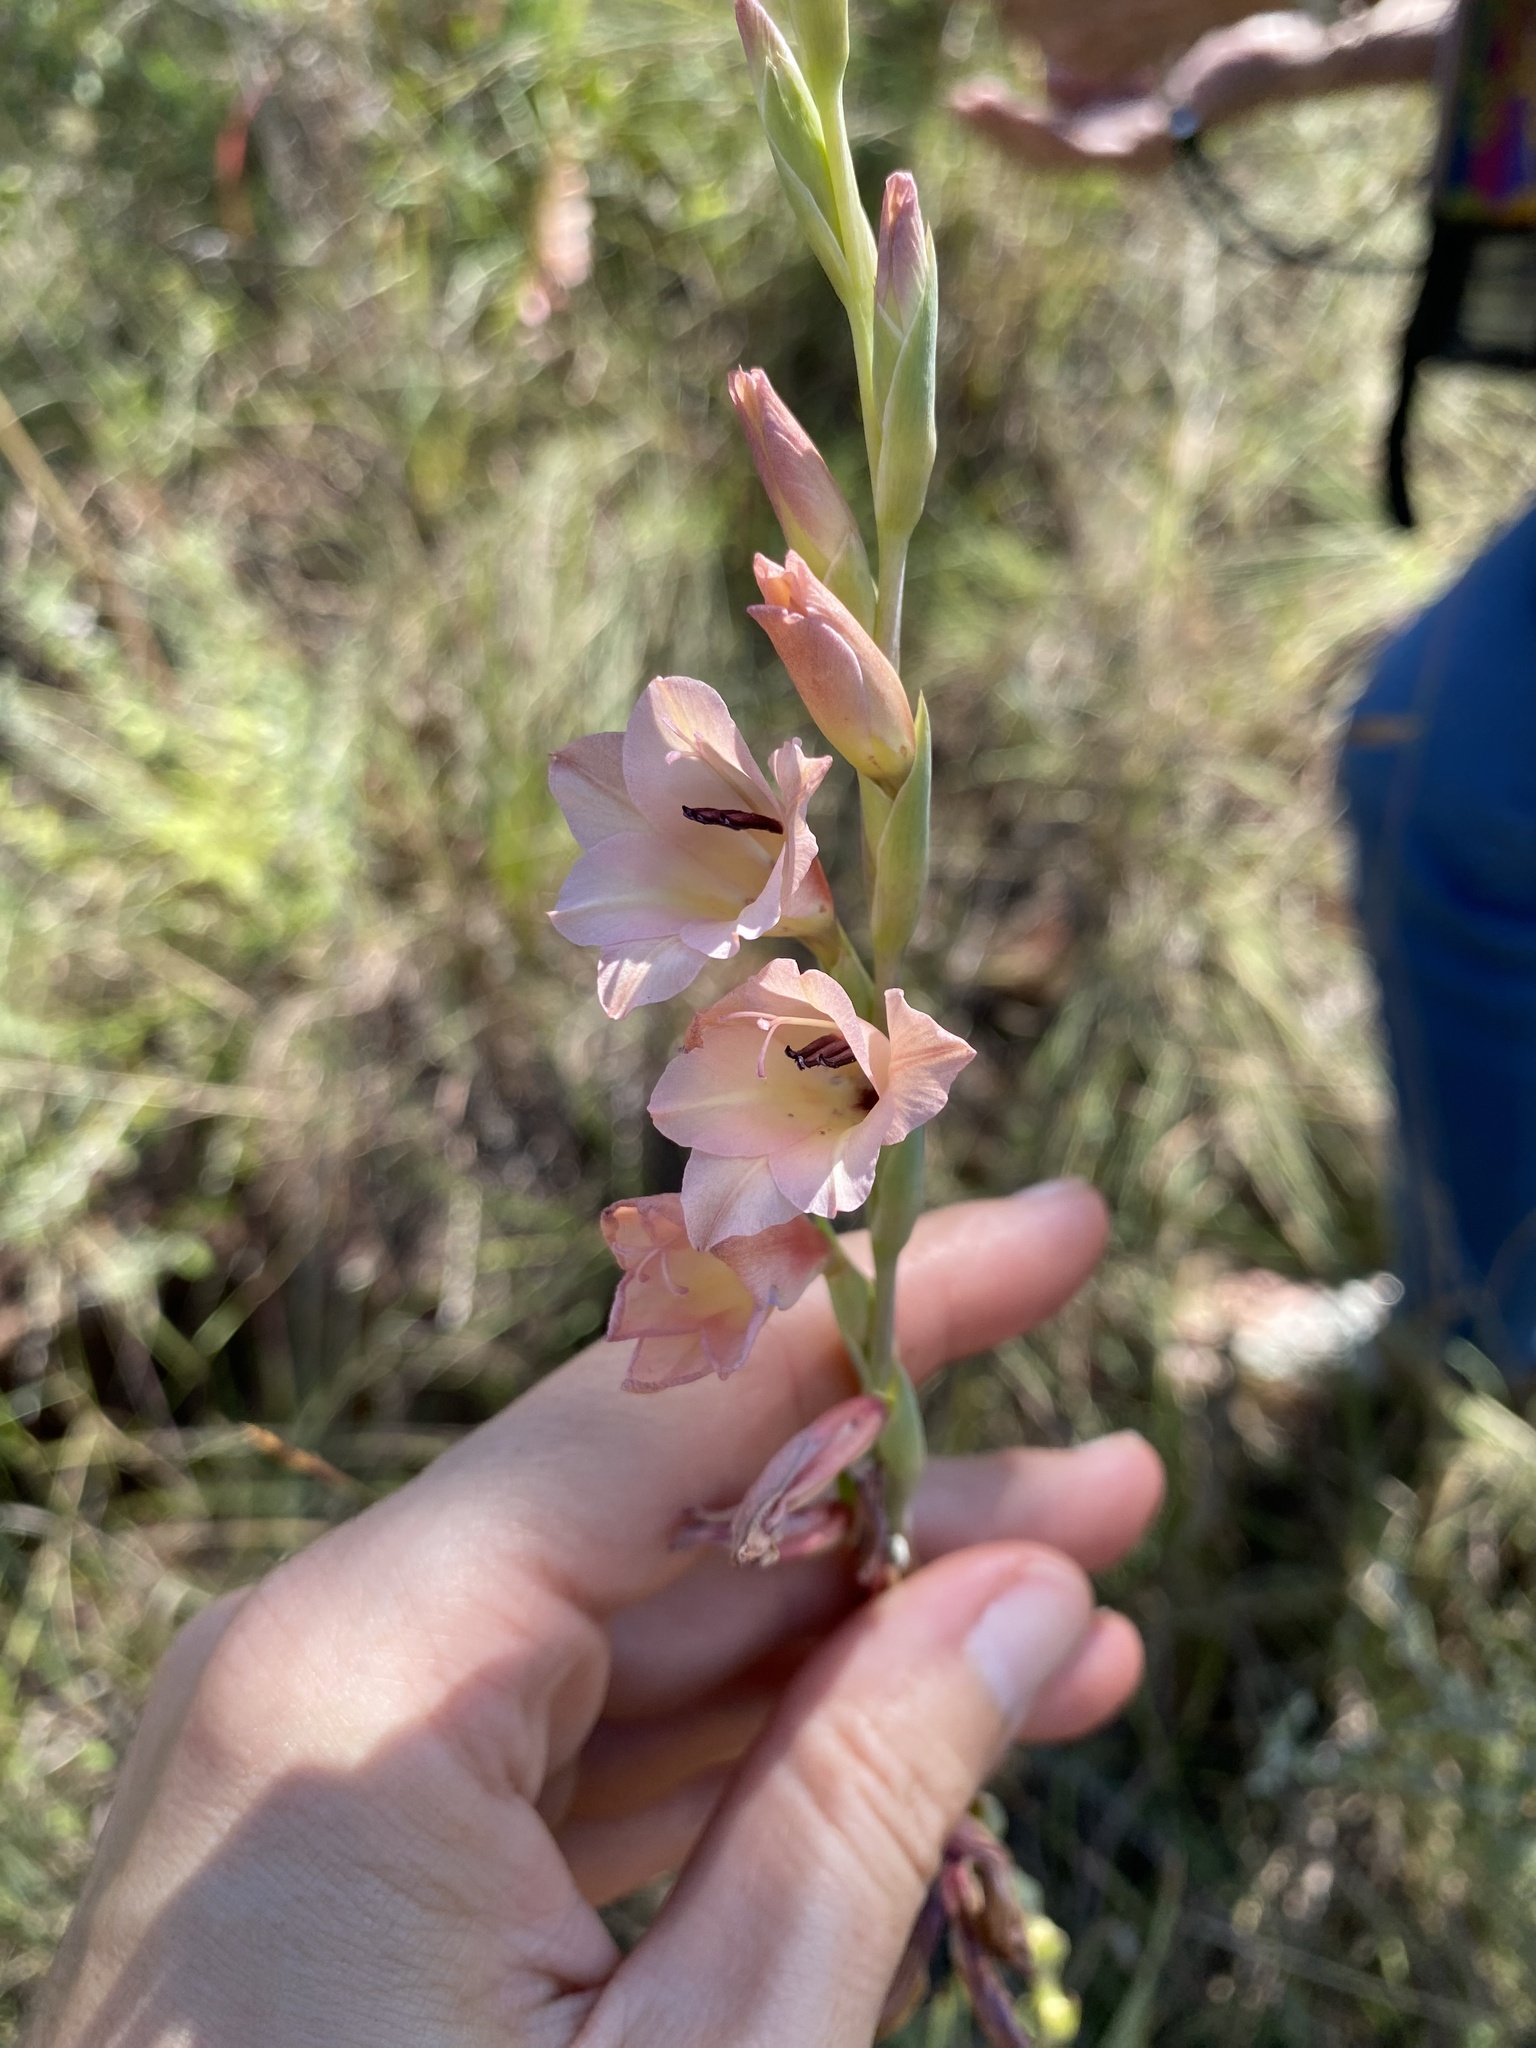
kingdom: Plantae
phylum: Tracheophyta
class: Liliopsida
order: Asparagales
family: Iridaceae
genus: Gladiolus
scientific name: Gladiolus densiflorus
